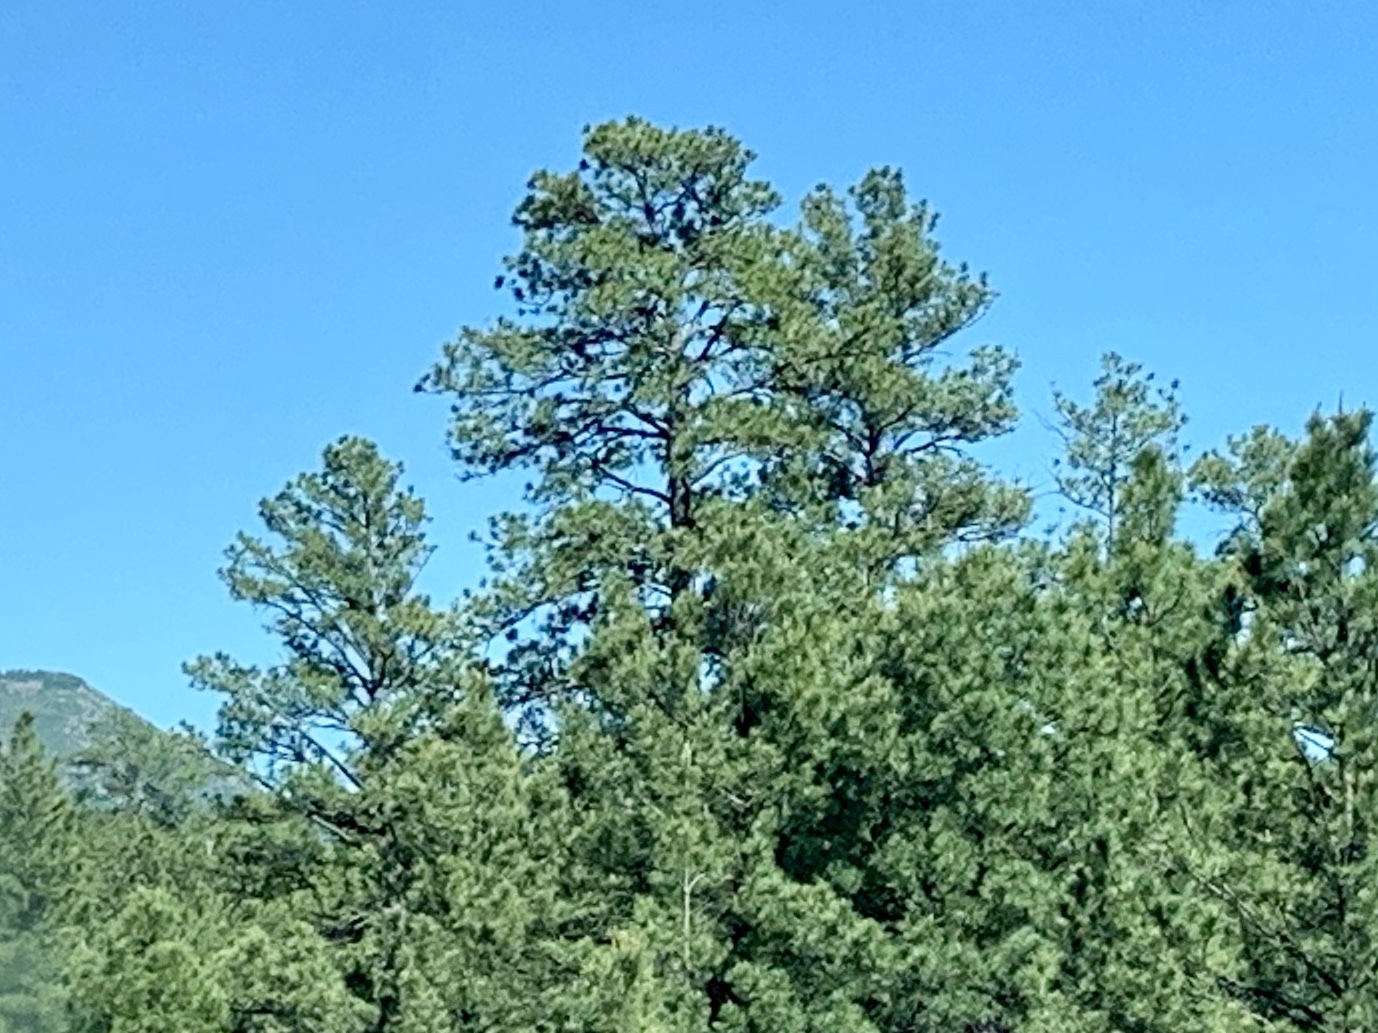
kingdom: Plantae
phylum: Tracheophyta
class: Pinopsida
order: Pinales
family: Pinaceae
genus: Pinus
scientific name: Pinus ponderosa
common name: Western yellow-pine
